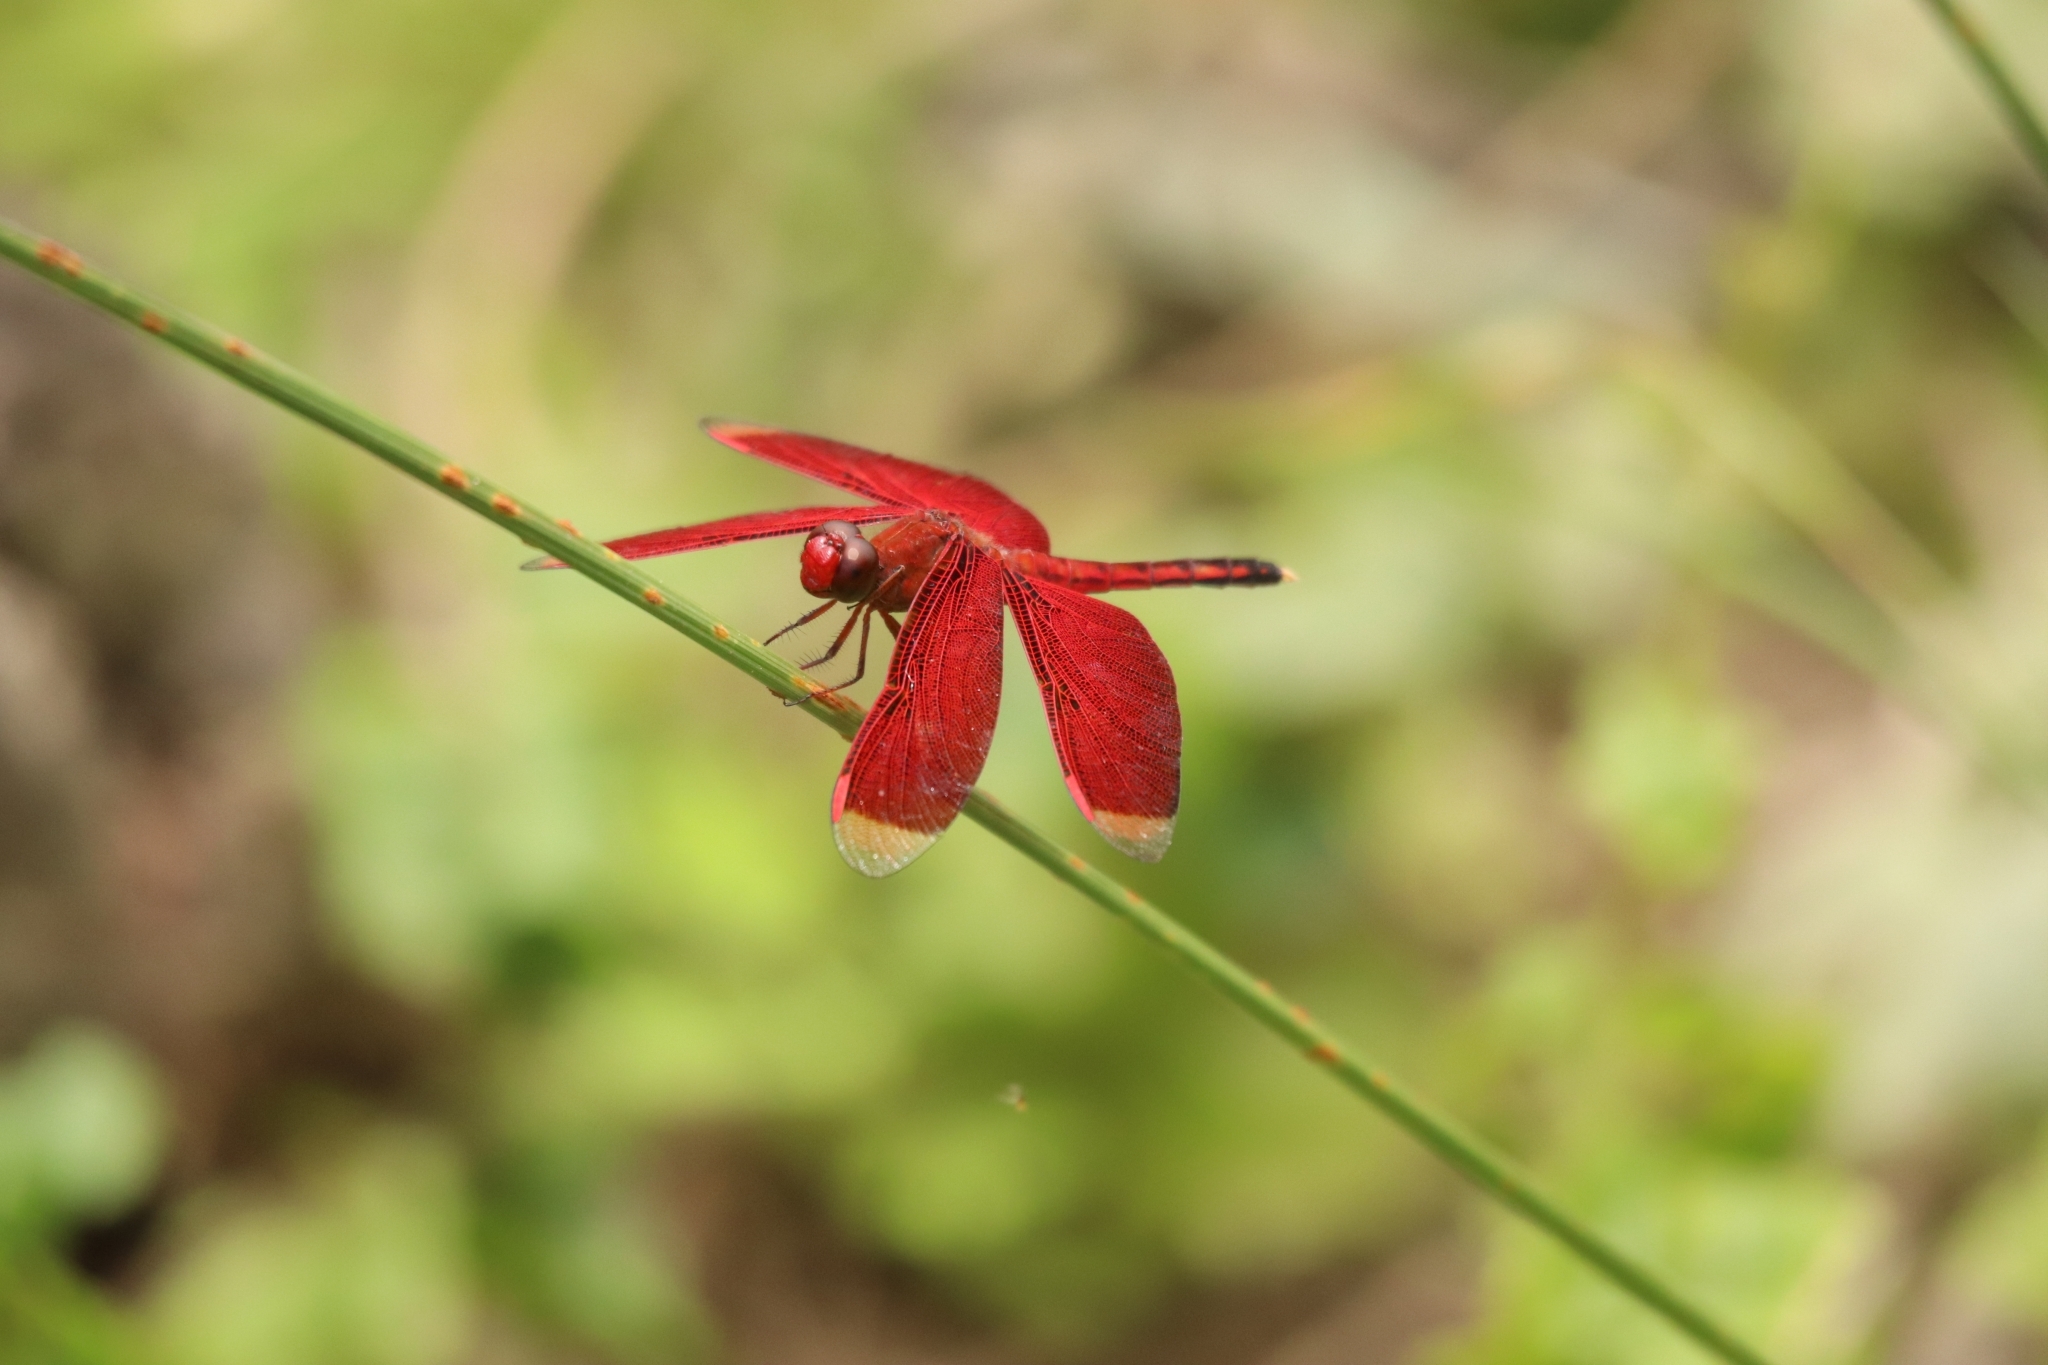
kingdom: Animalia
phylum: Arthropoda
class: Insecta
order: Odonata
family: Libellulidae
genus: Neurothemis
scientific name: Neurothemis manadensis
